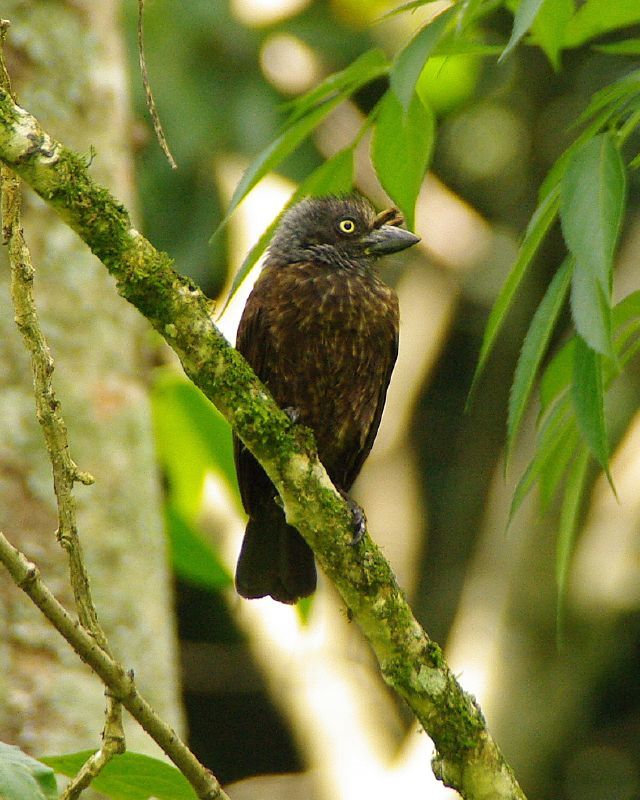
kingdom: Animalia
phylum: Chordata
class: Aves
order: Piciformes
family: Lybiidae
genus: Gymnobucco
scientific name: Gymnobucco bonapartei
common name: Grey-throated barbet
